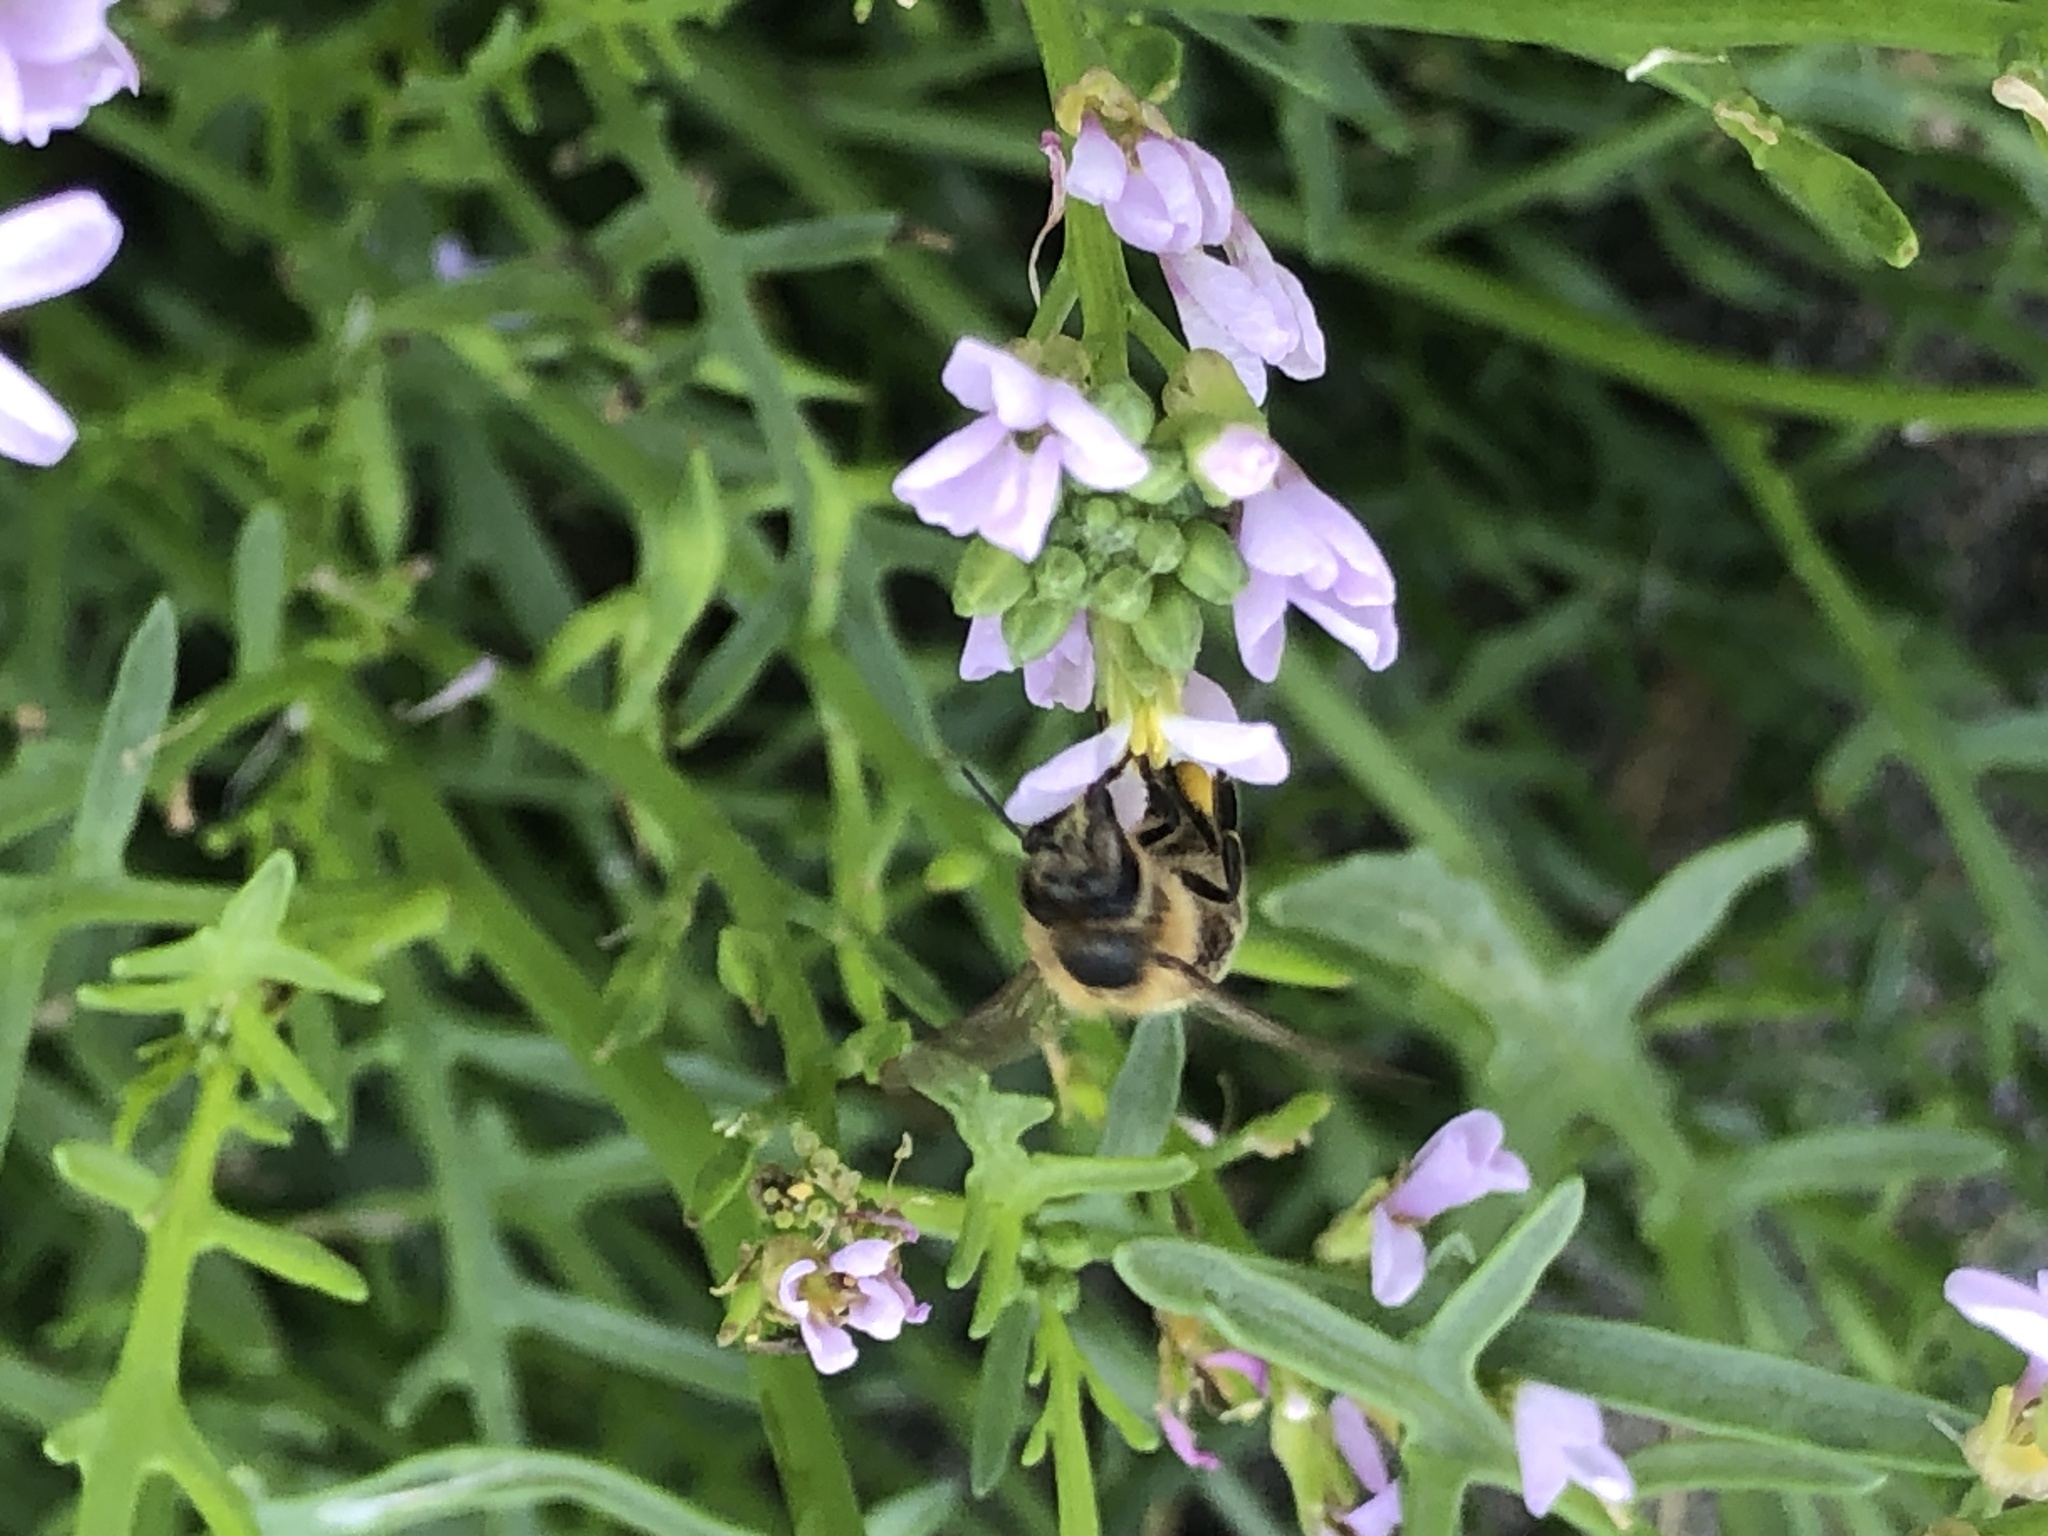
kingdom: Animalia
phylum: Arthropoda
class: Insecta
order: Hymenoptera
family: Apidae
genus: Apis
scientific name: Apis mellifera
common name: Honey bee
